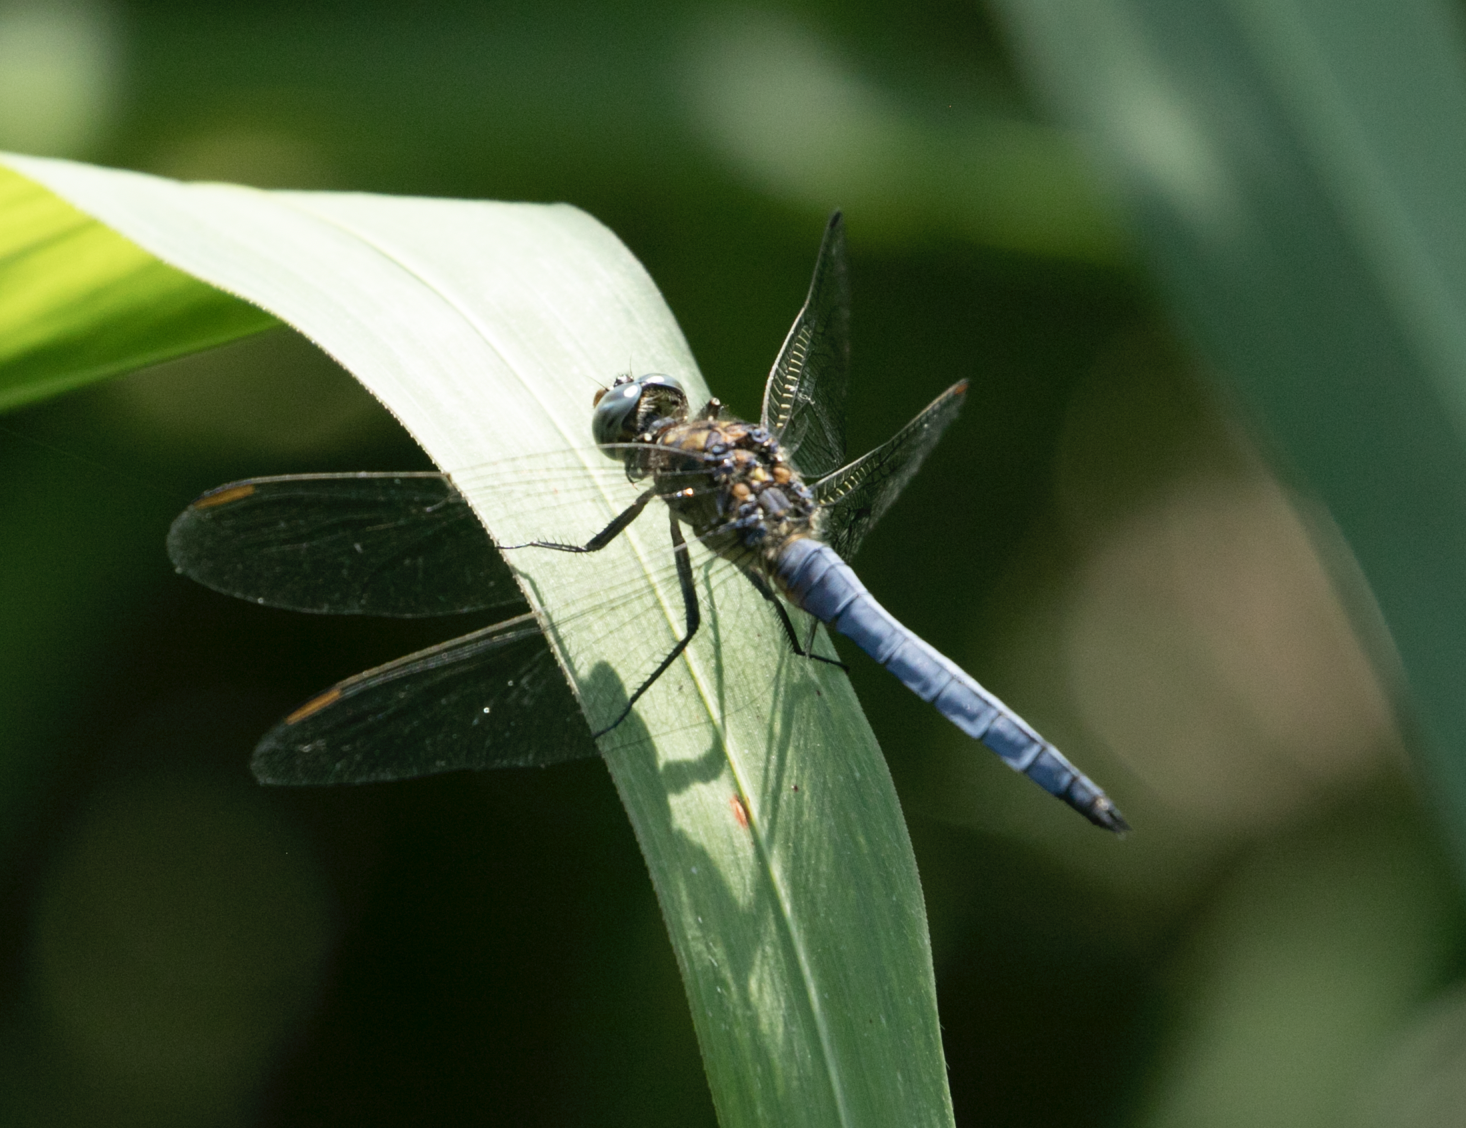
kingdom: Animalia
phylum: Arthropoda
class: Insecta
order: Odonata
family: Libellulidae
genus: Orthetrum
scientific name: Orthetrum coerulescens
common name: Keeled skimmer
